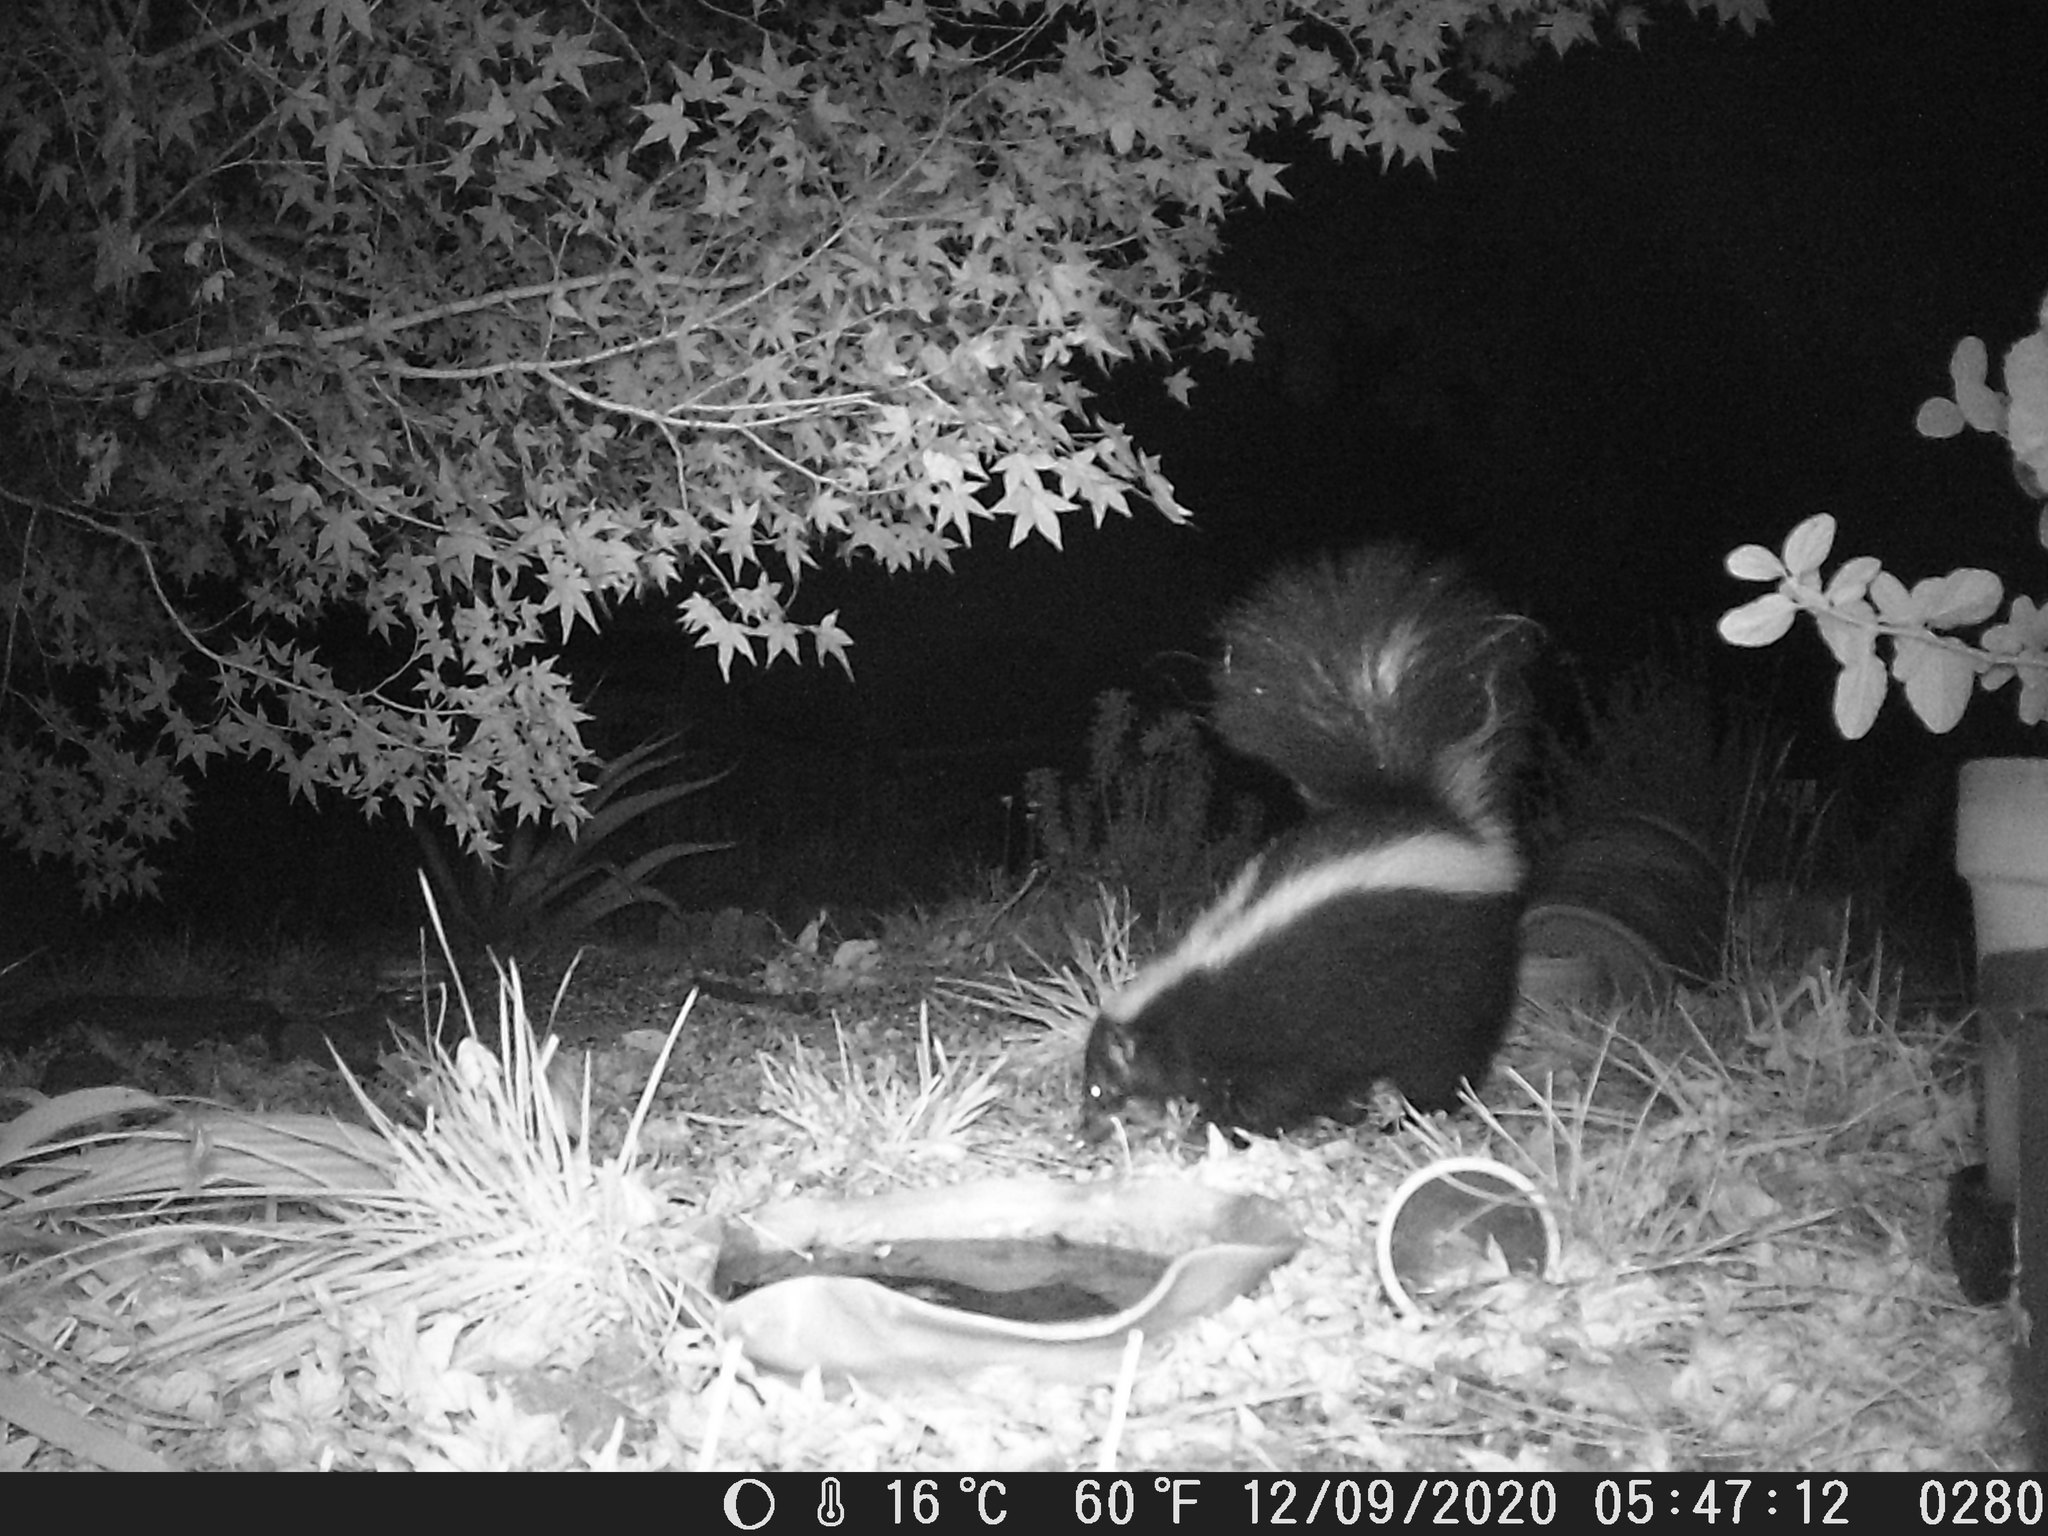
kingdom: Animalia
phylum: Chordata
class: Mammalia
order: Carnivora
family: Mephitidae
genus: Mephitis
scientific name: Mephitis mephitis
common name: Striped skunk
